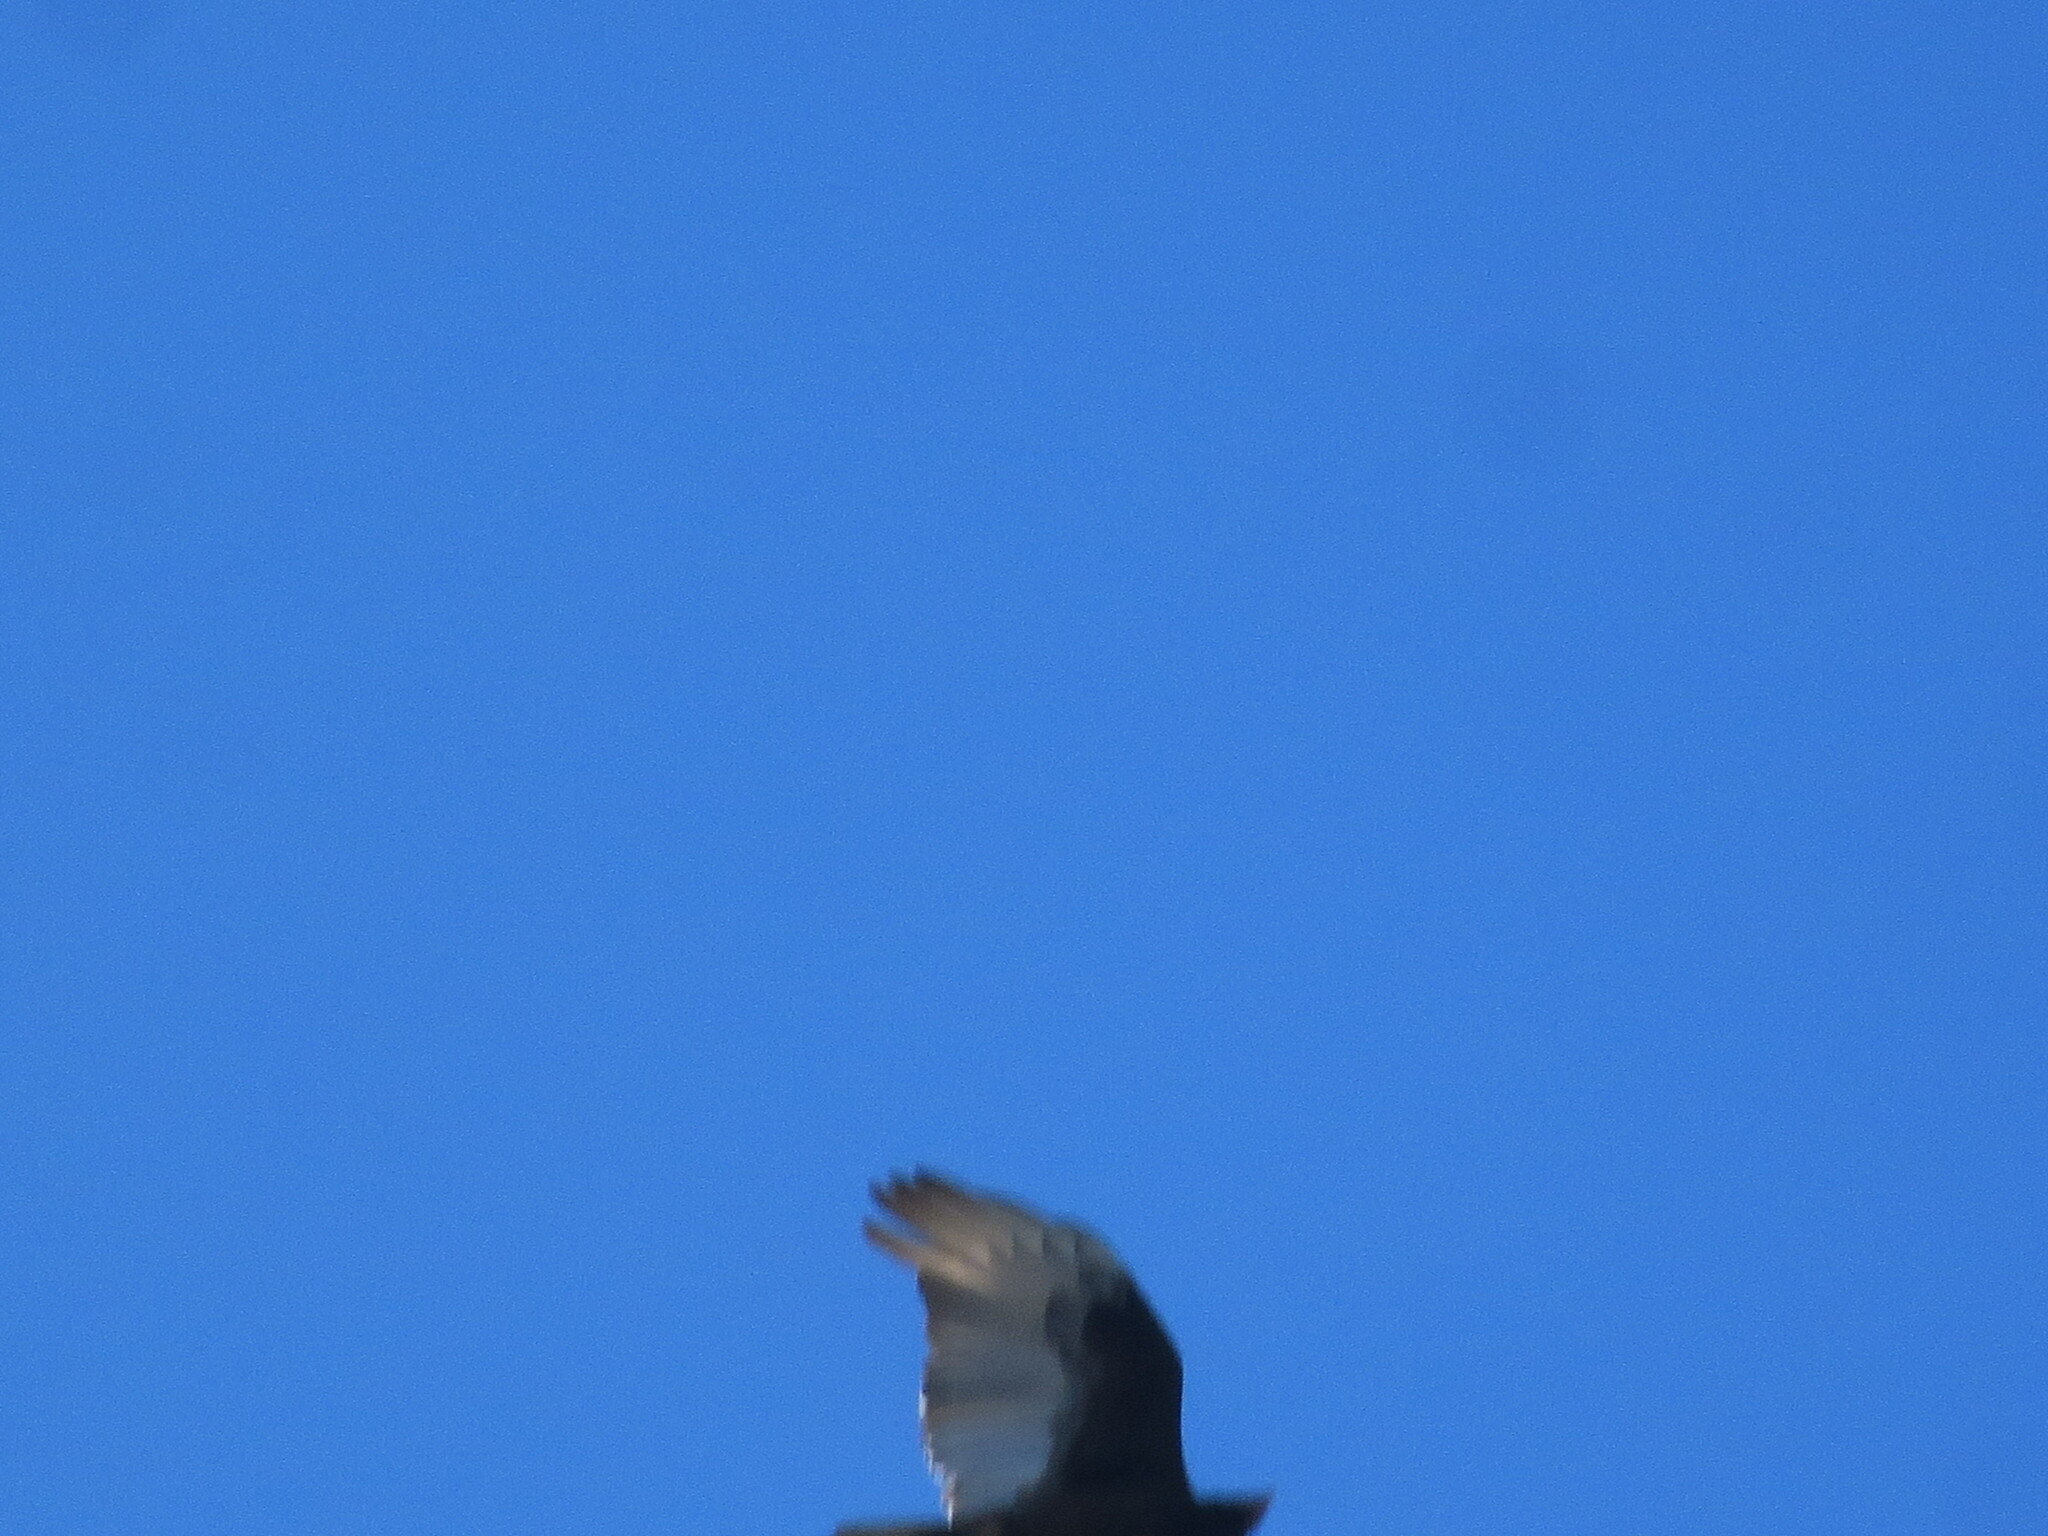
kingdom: Animalia
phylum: Chordata
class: Aves
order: Accipitriformes
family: Cathartidae
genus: Cathartes
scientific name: Cathartes aura
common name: Turkey vulture
